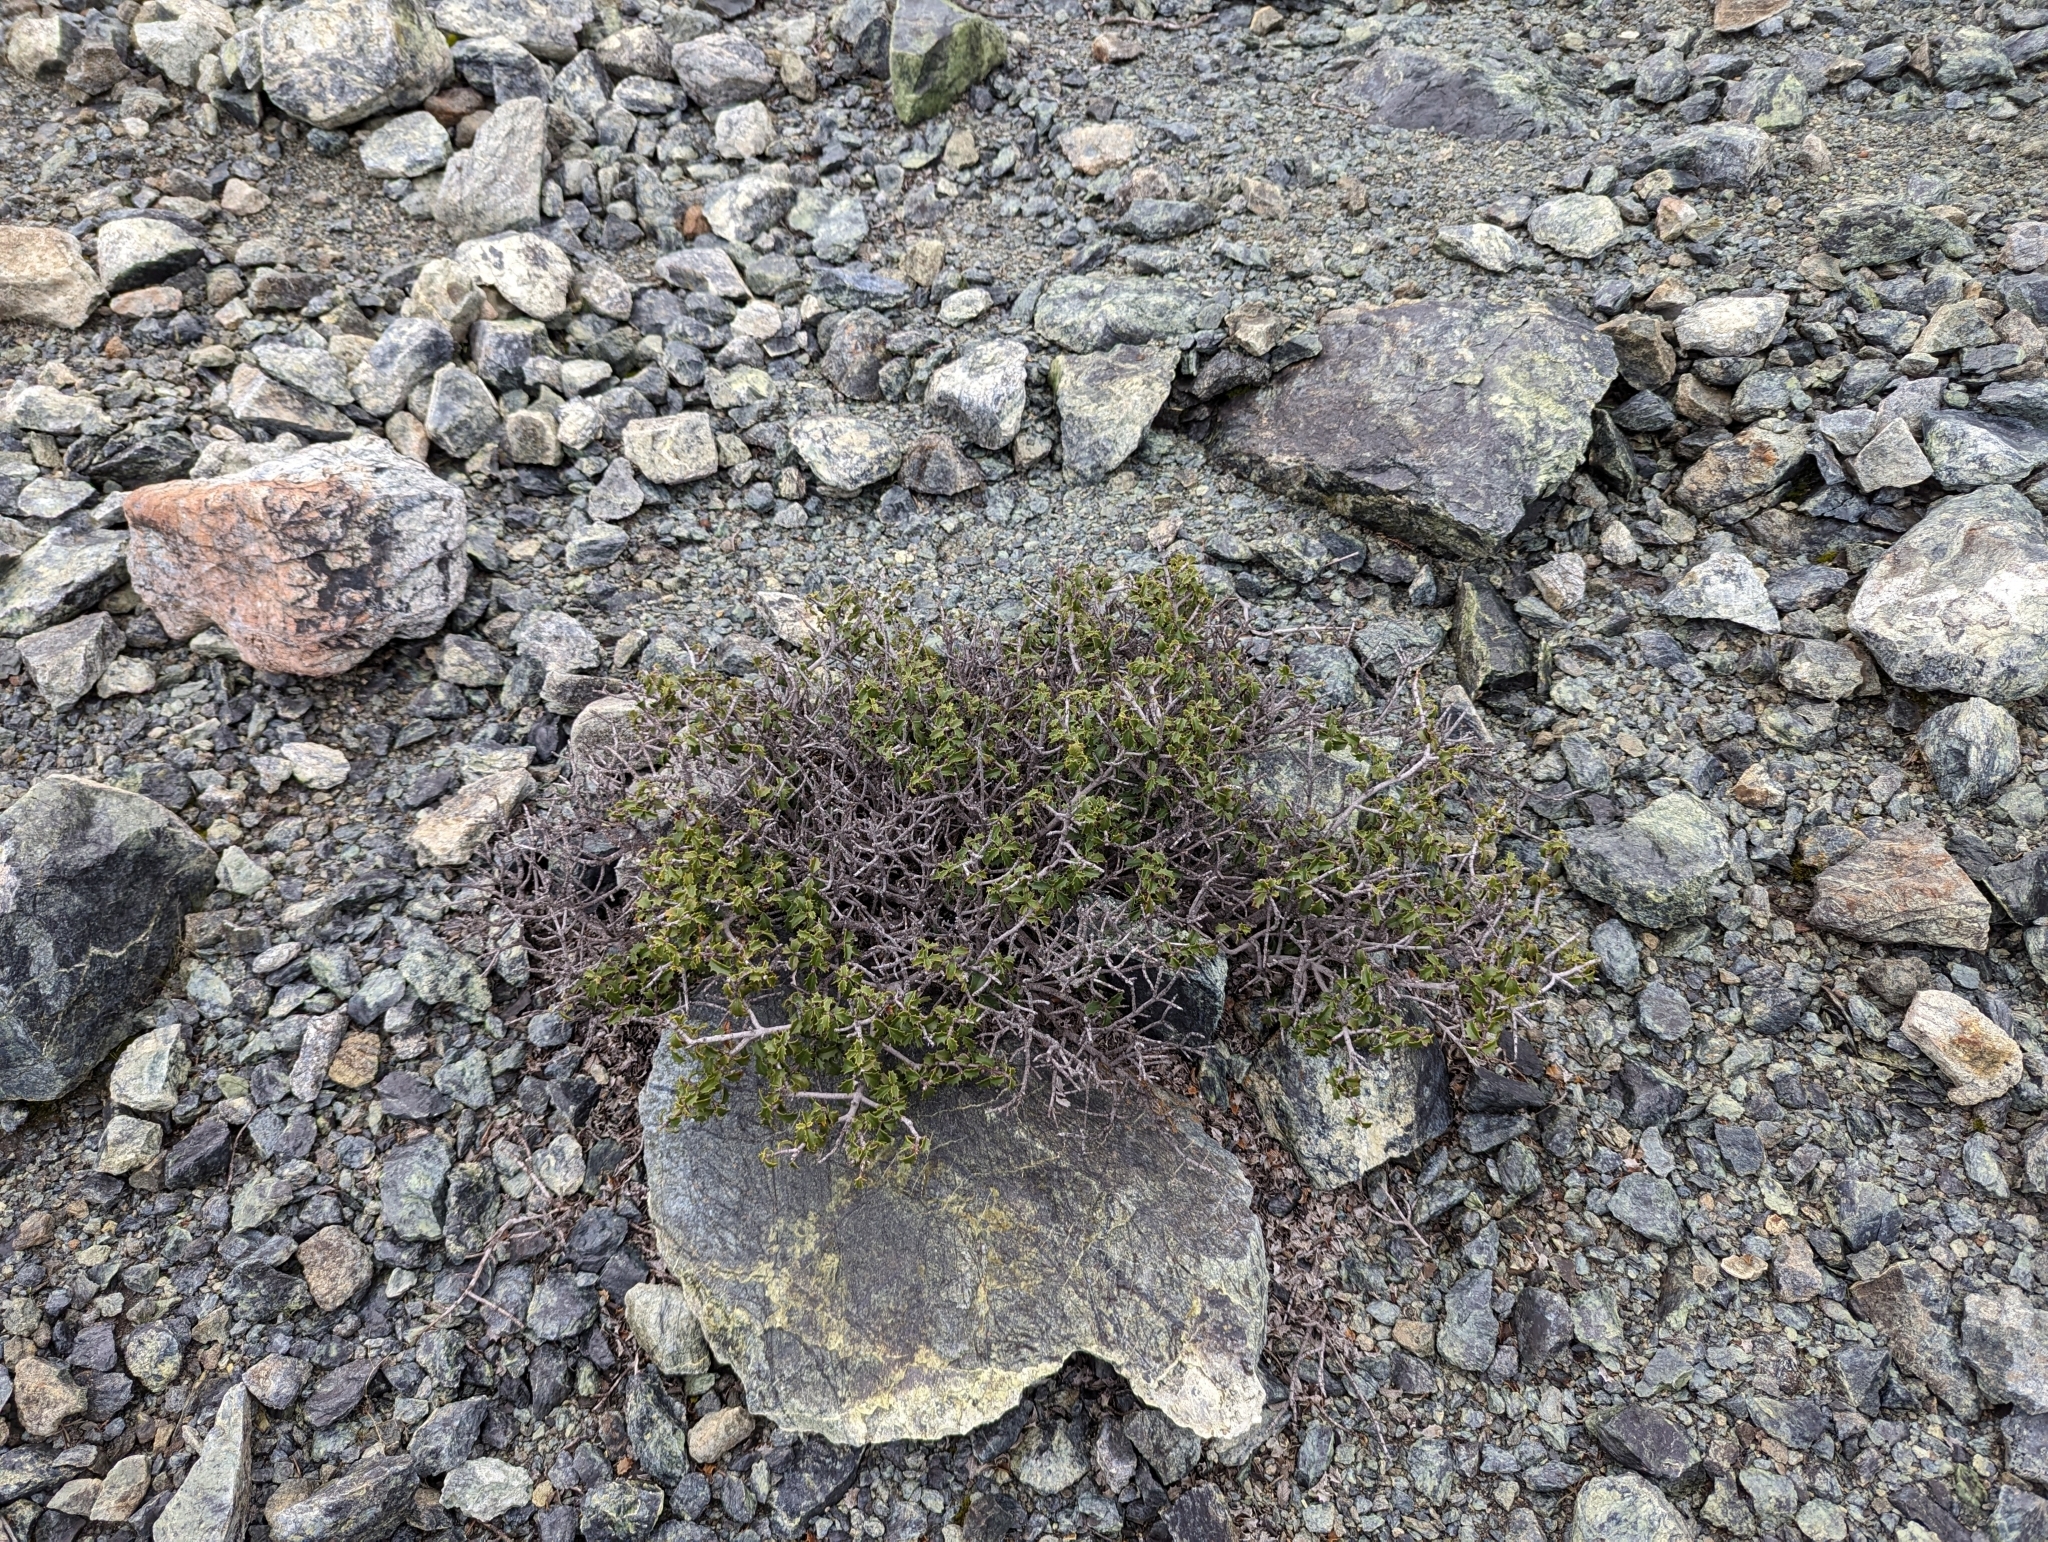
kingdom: Plantae
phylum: Tracheophyta
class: Magnoliopsida
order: Rosales
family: Rhamnaceae
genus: Ceanothus
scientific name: Ceanothus jepsonii
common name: Muskbrush
